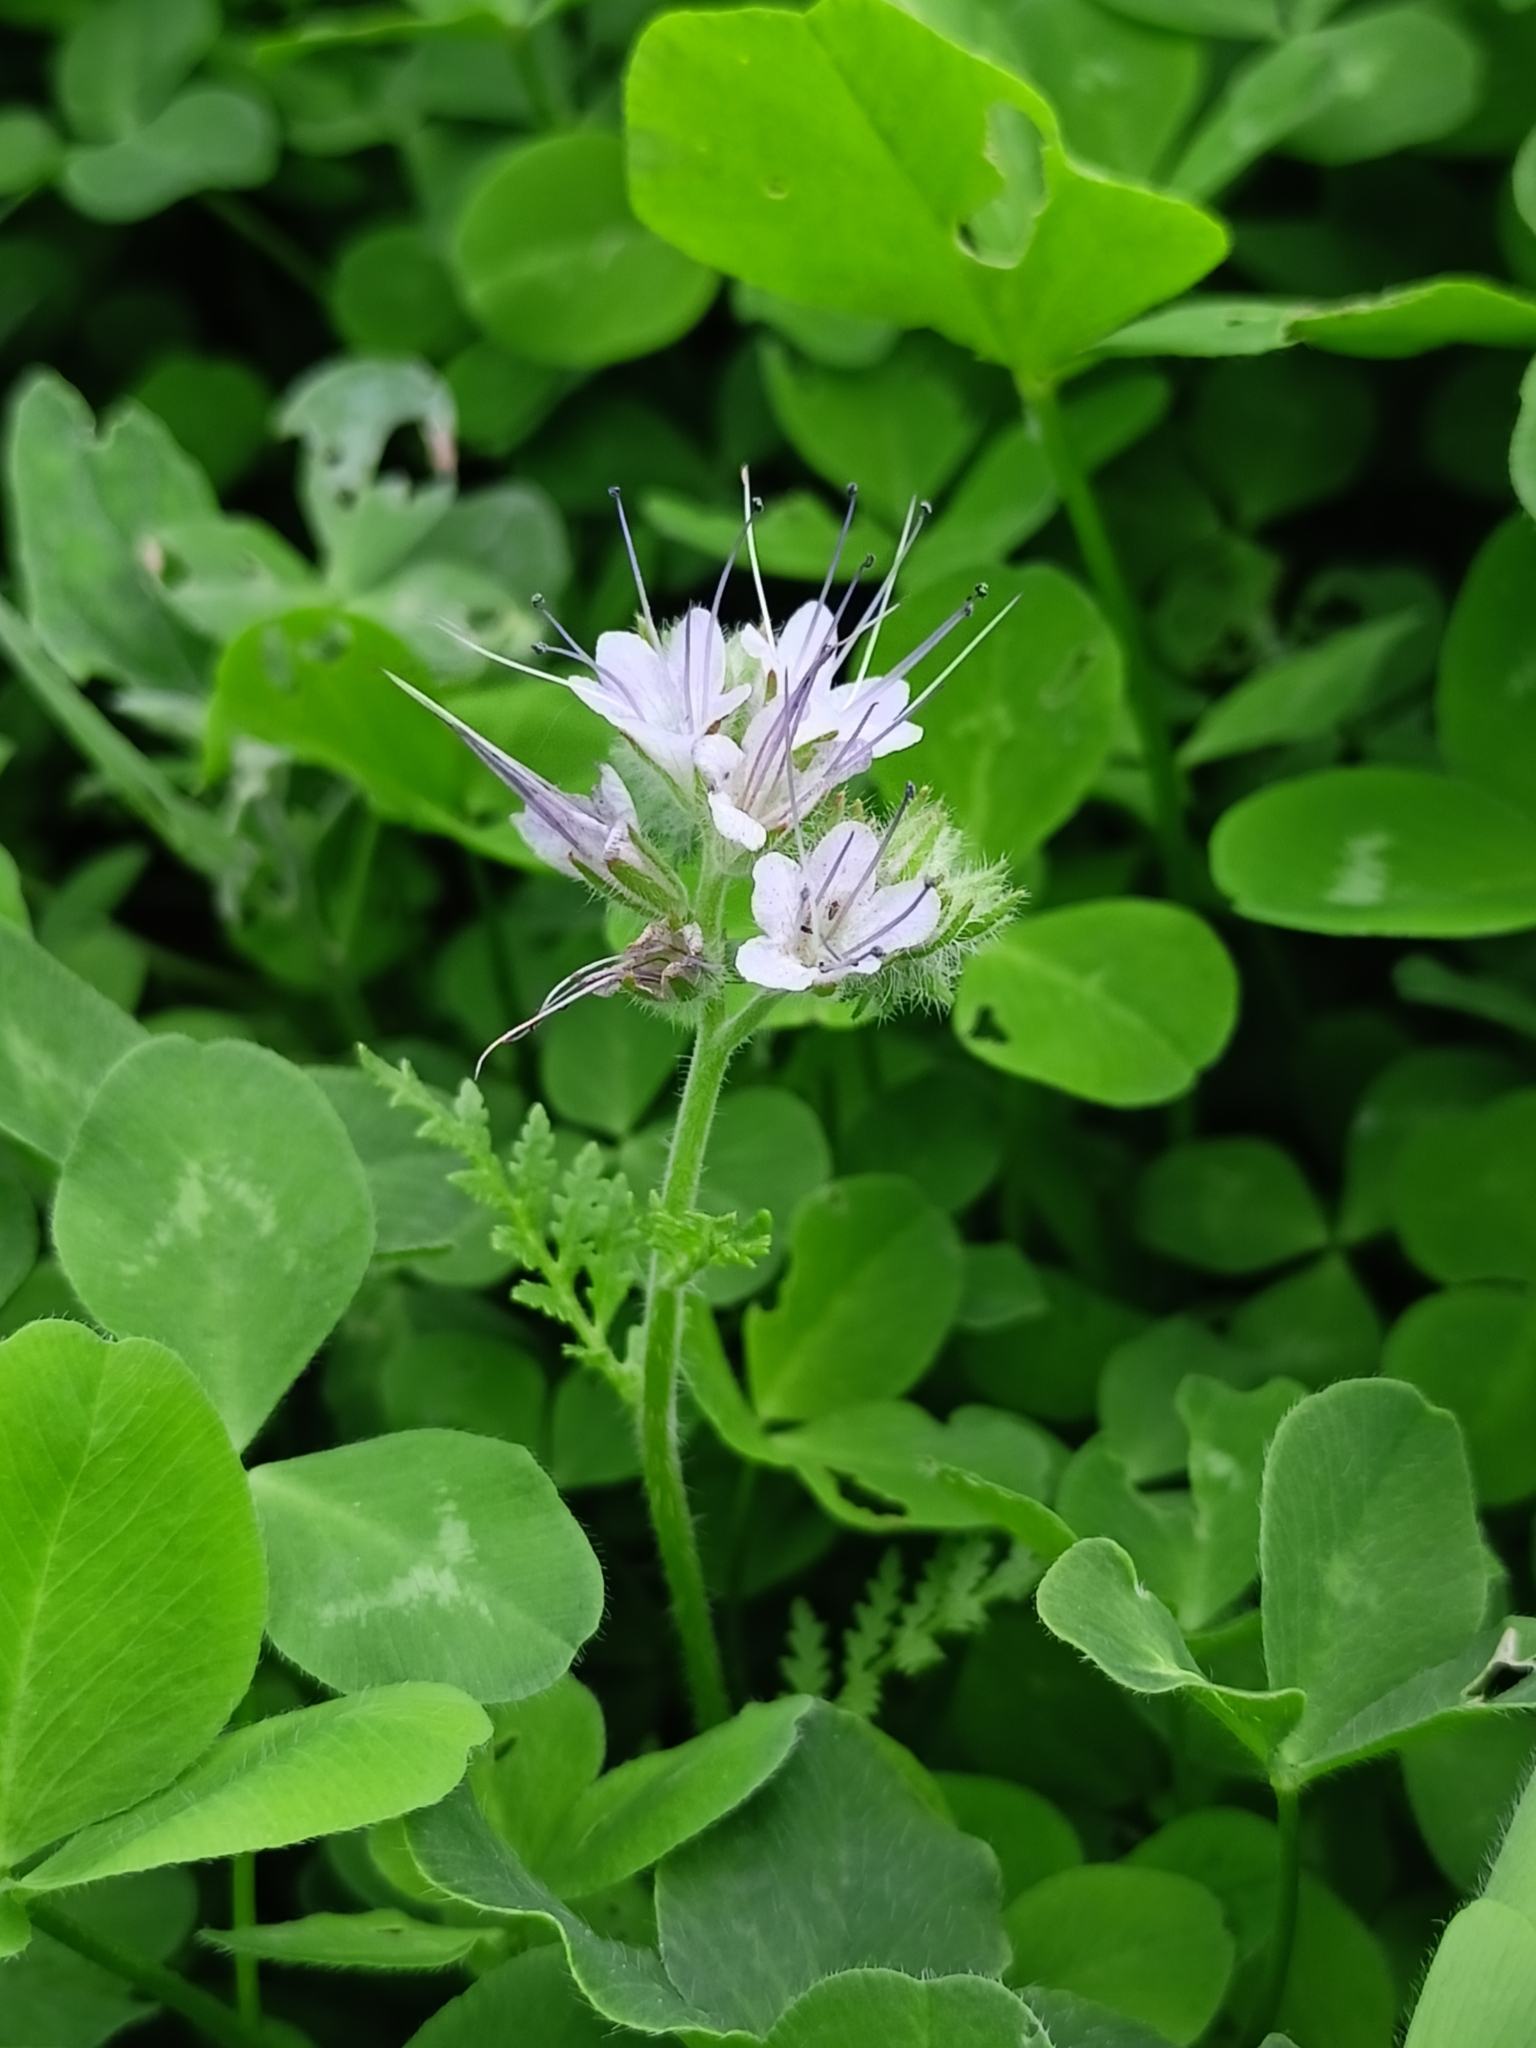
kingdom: Plantae
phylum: Tracheophyta
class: Magnoliopsida
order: Boraginales
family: Hydrophyllaceae
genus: Phacelia
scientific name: Phacelia tanacetifolia
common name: Phacelia
